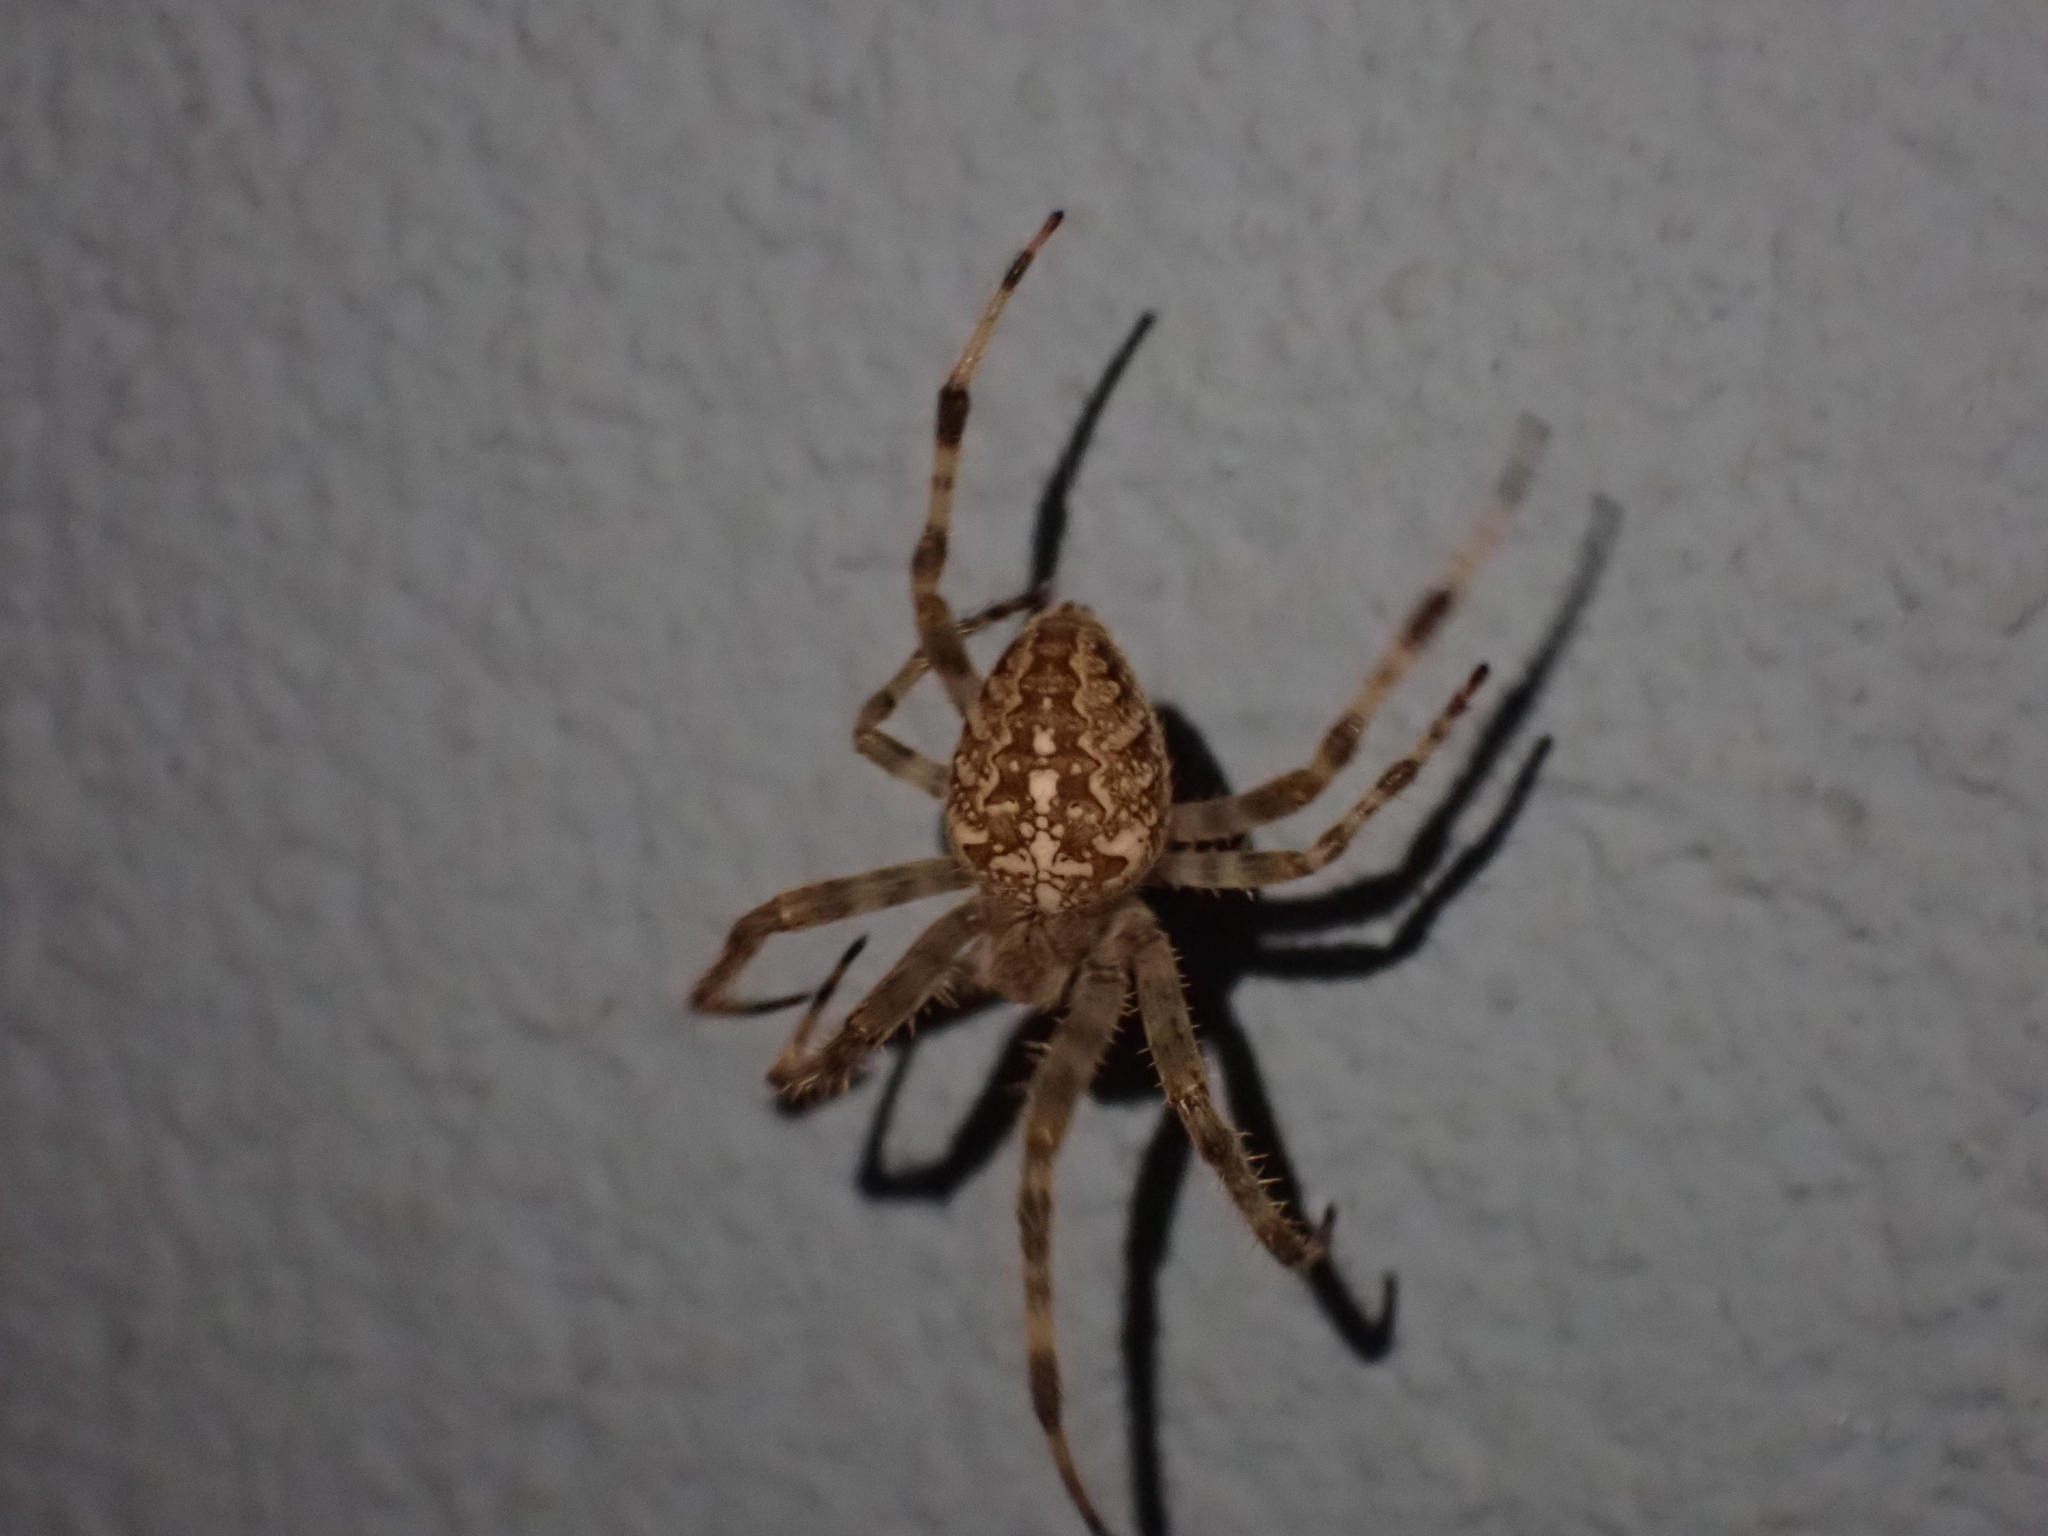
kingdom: Animalia
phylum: Arthropoda
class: Arachnida
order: Araneae
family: Araneidae
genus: Araneus
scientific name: Araneus diadematus
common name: Cross orbweaver
